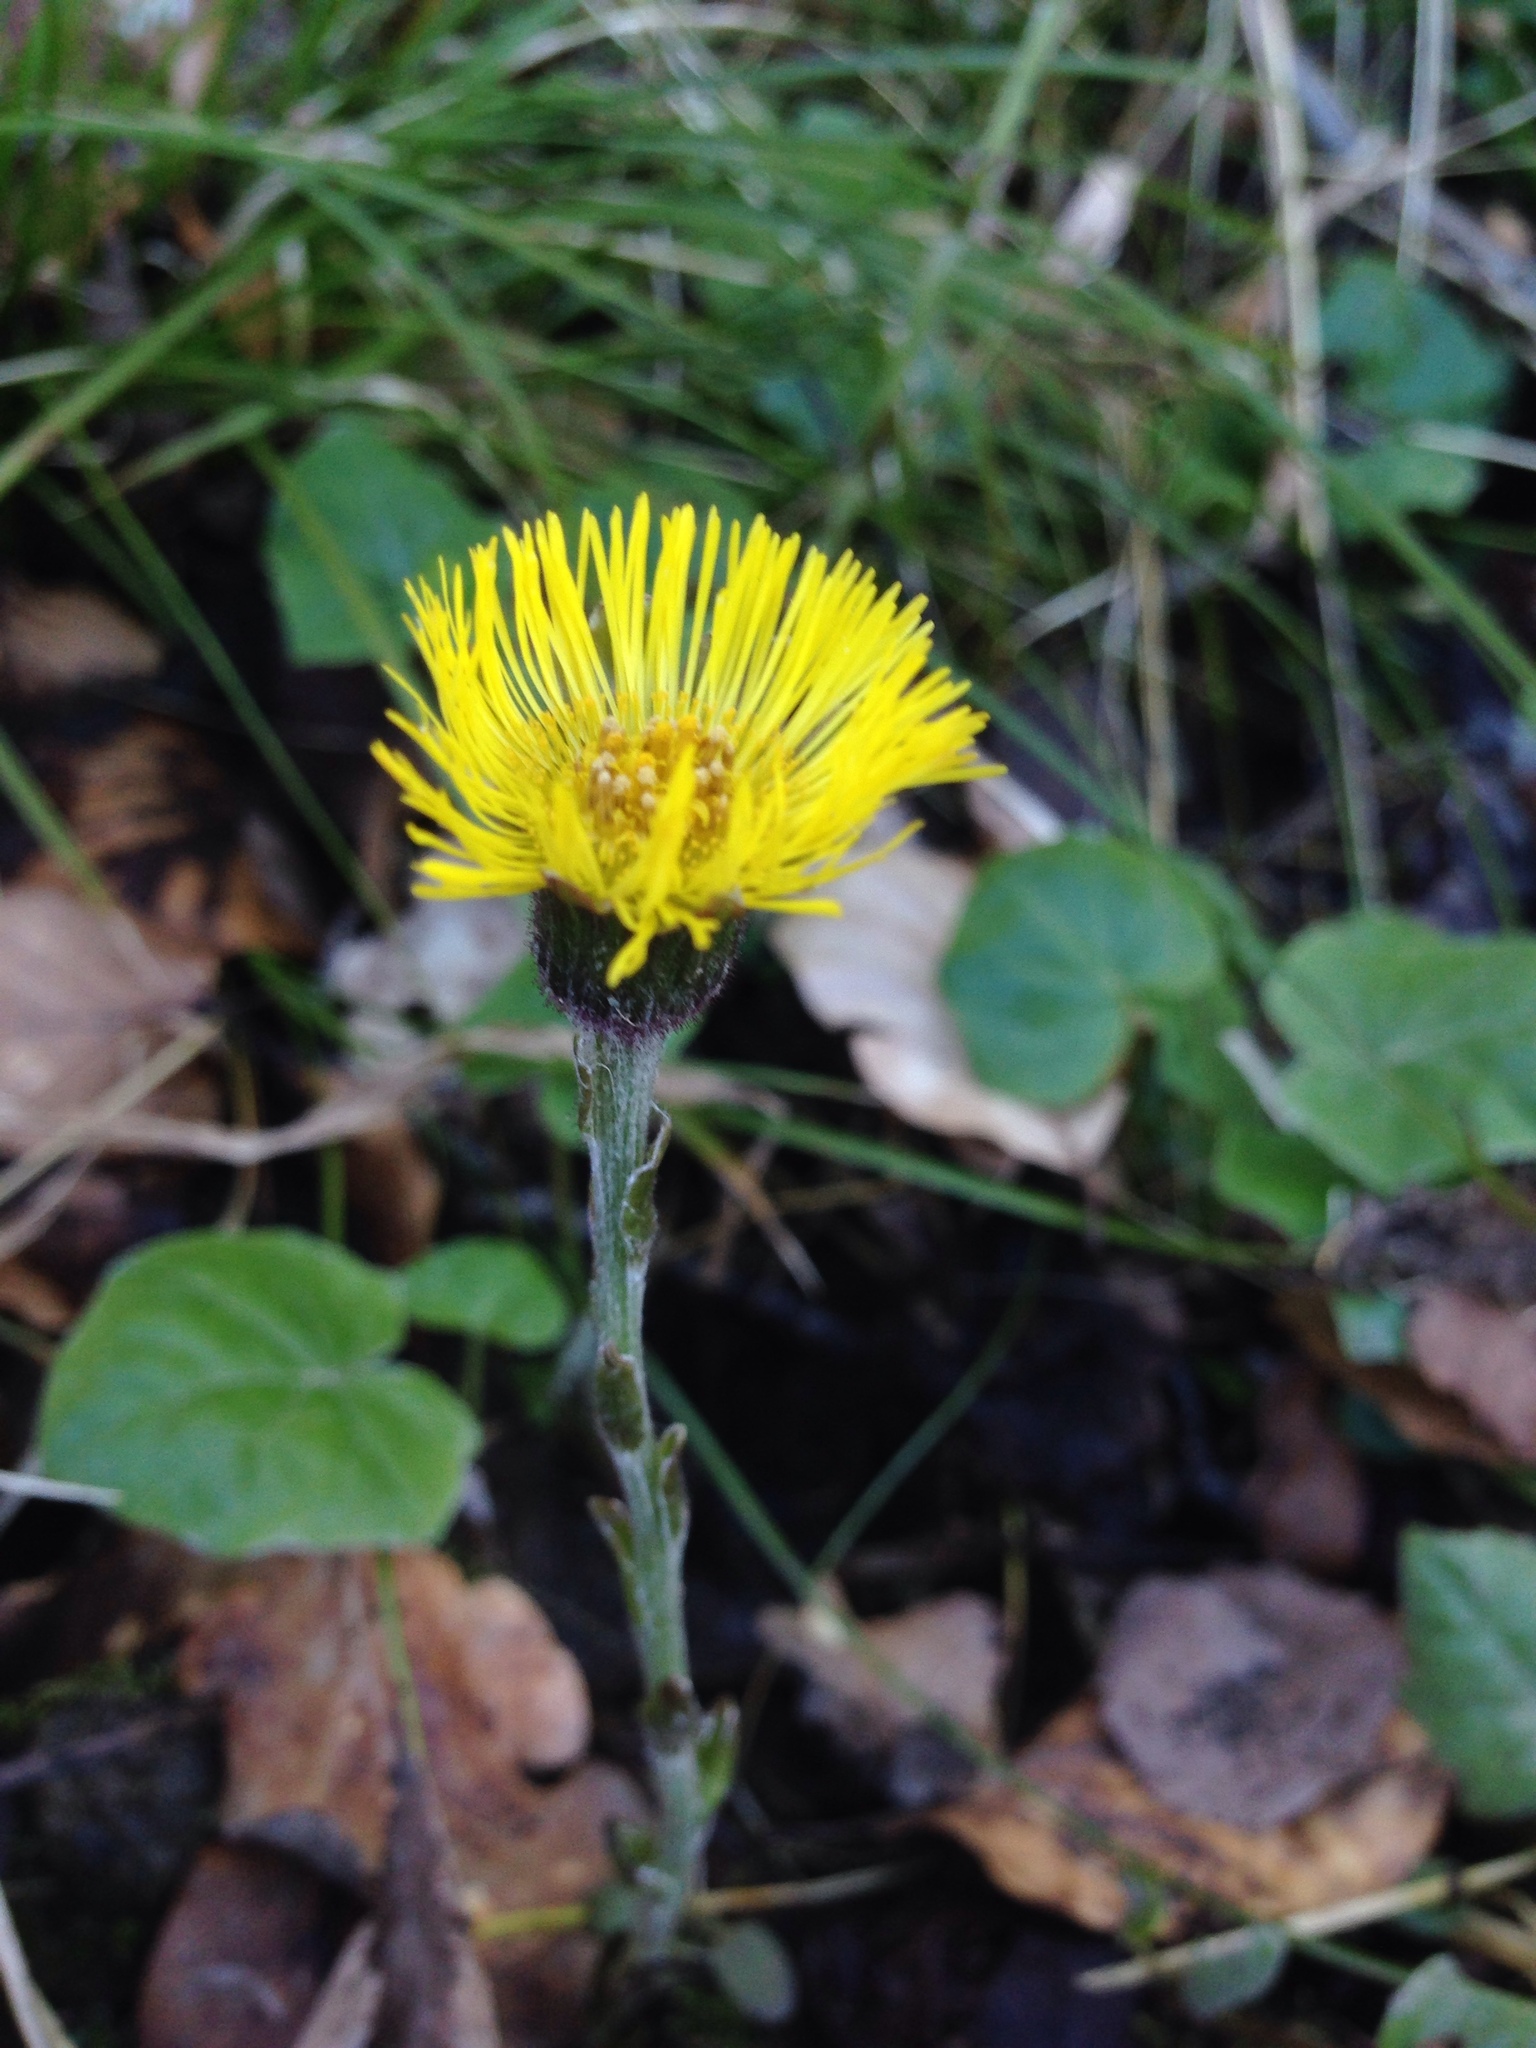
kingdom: Plantae
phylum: Tracheophyta
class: Magnoliopsida
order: Asterales
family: Asteraceae
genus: Tussilago
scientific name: Tussilago farfara
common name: Coltsfoot
